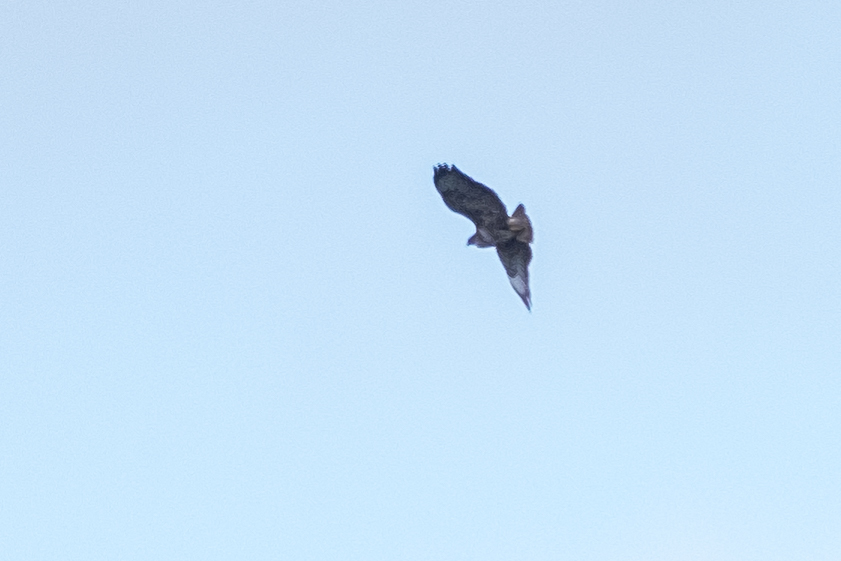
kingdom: Animalia
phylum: Chordata
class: Aves
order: Accipitriformes
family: Accipitridae
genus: Buteo
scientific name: Buteo buteo
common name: Common buzzard
